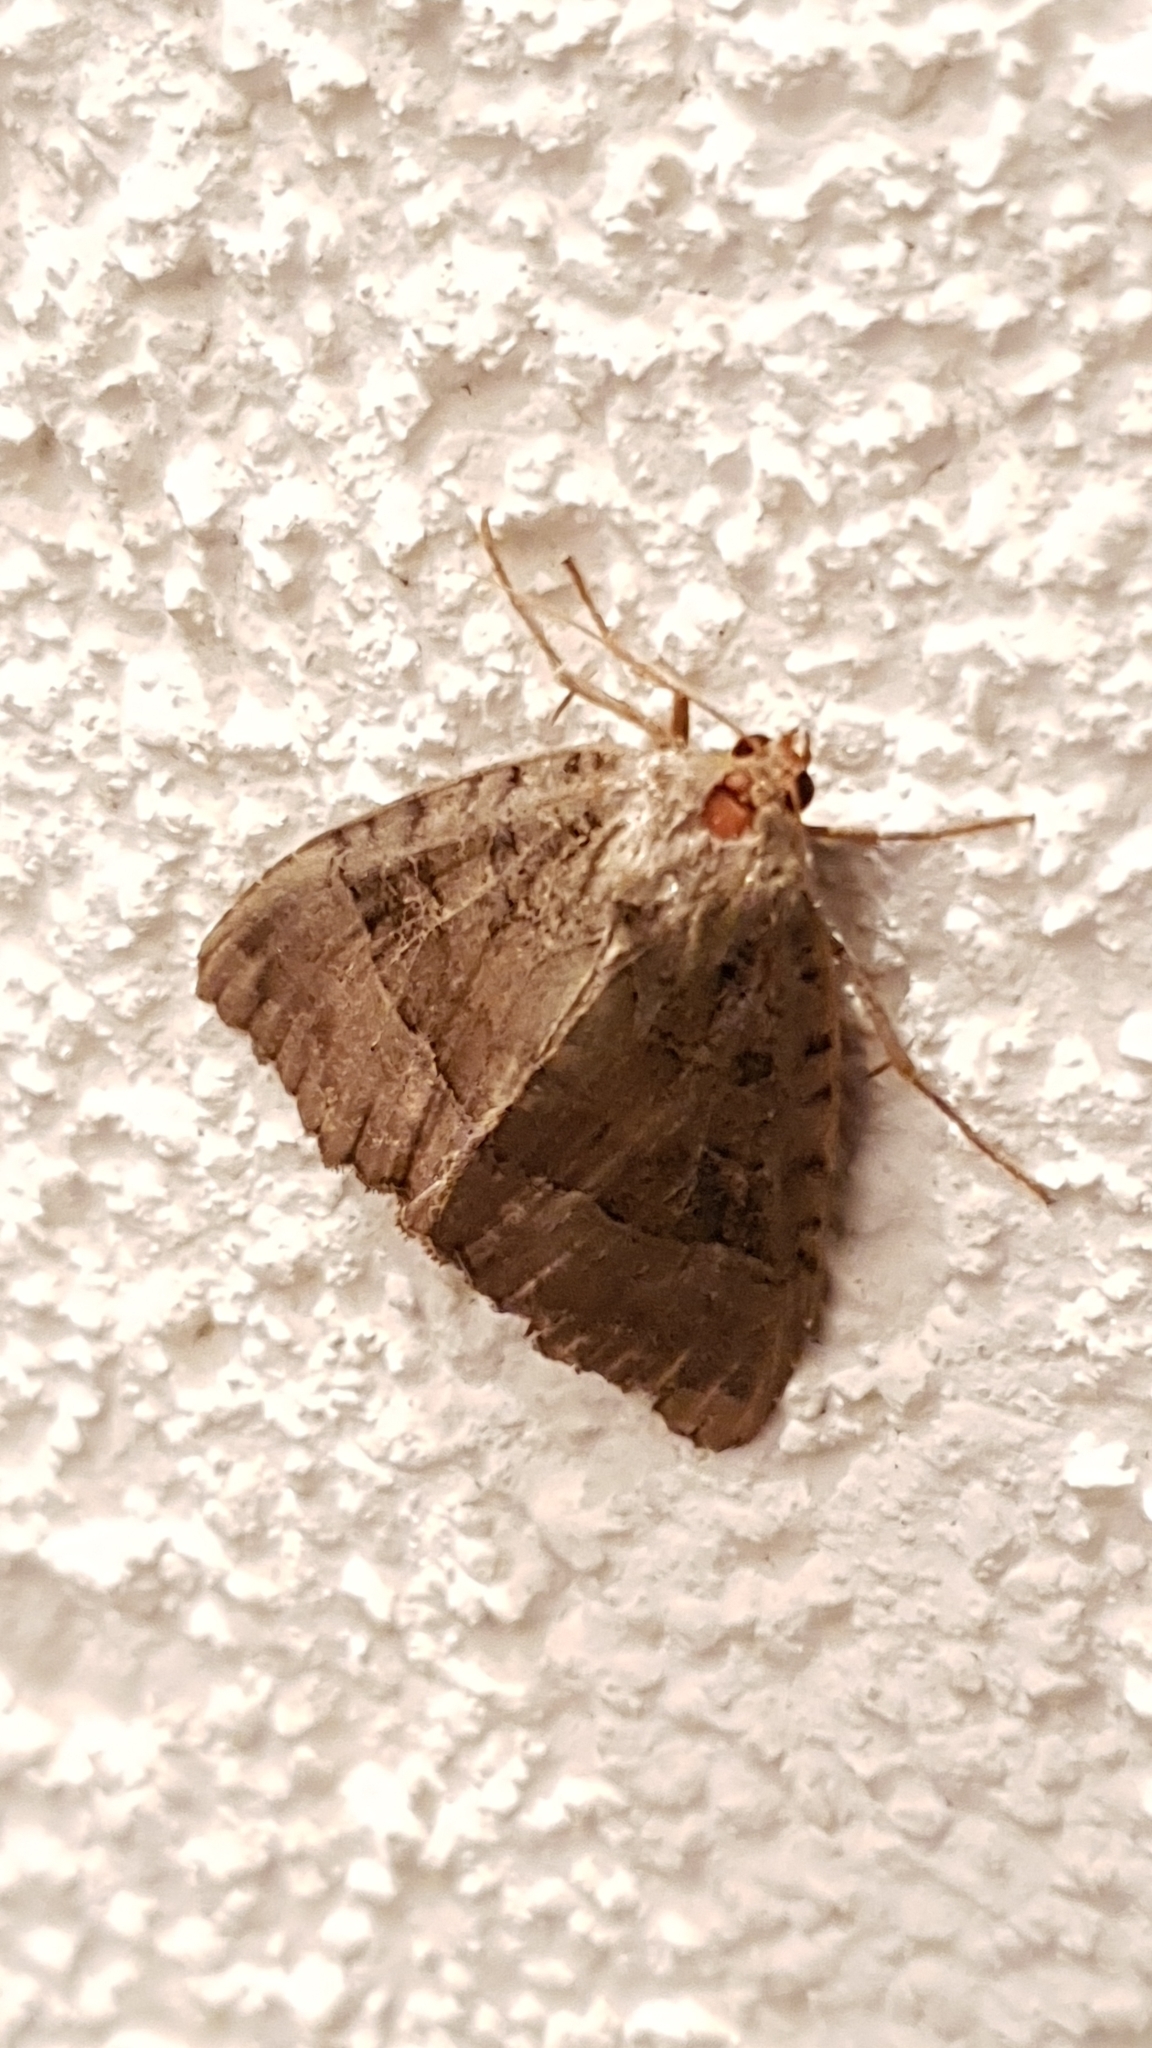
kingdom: Animalia
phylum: Arthropoda
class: Insecta
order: Lepidoptera
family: Noctuidae
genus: Mormo
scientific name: Mormo maura
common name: Old lady
